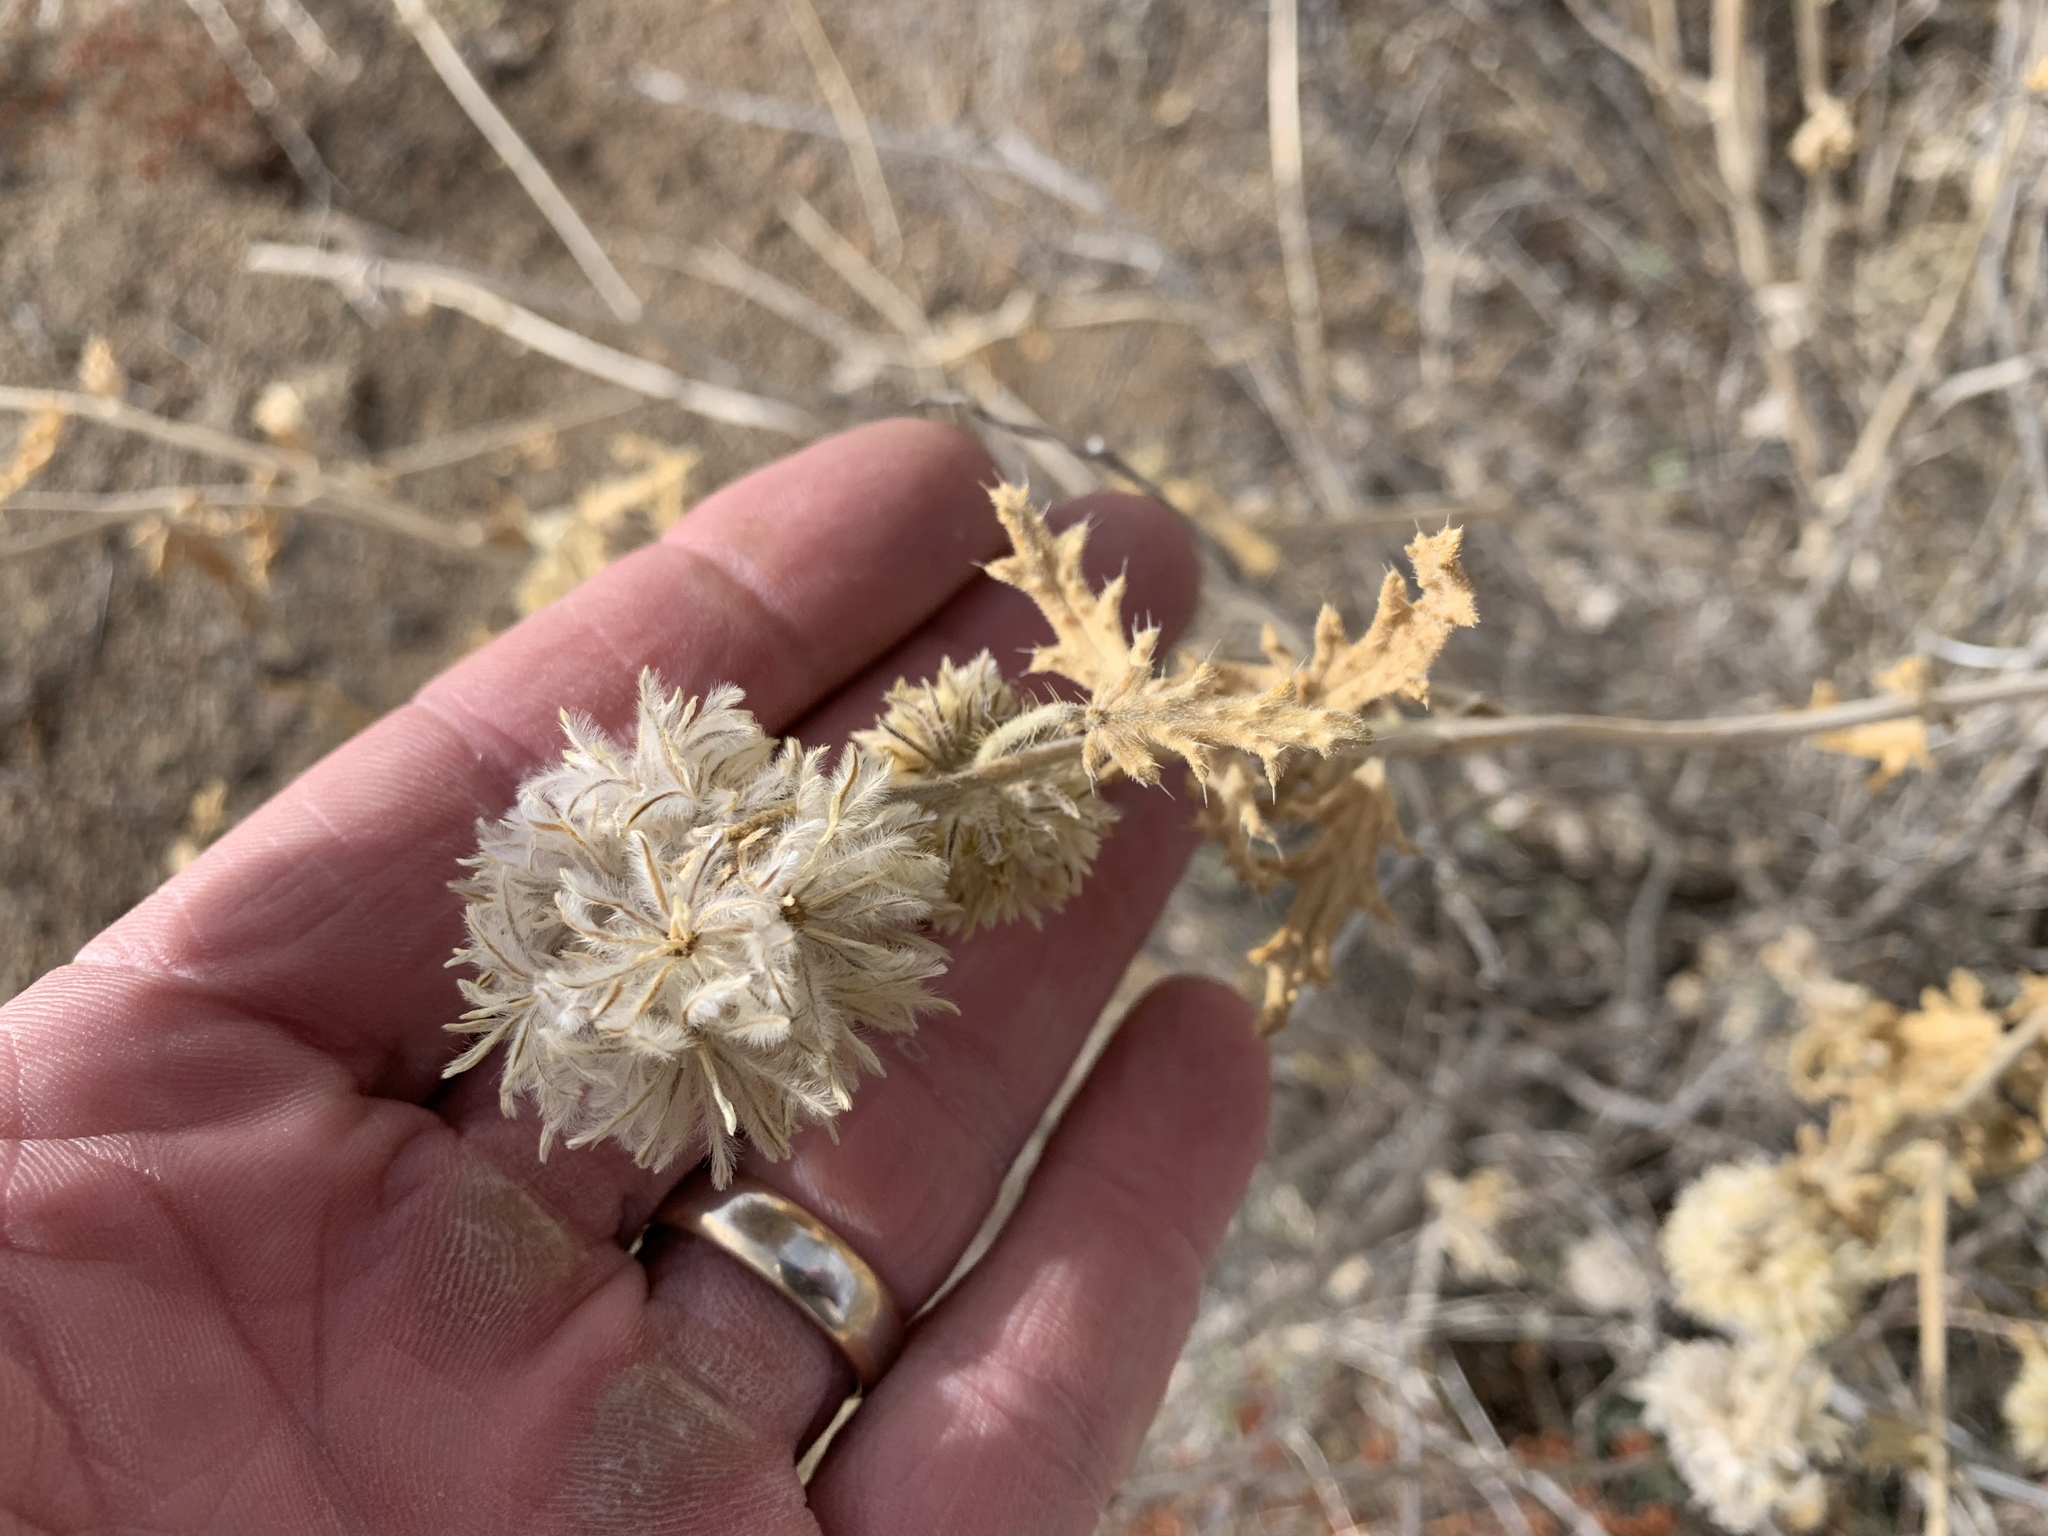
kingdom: Plantae
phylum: Tracheophyta
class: Magnoliopsida
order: Cornales
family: Loasaceae
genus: Cevallia
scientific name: Cevallia sinuata
